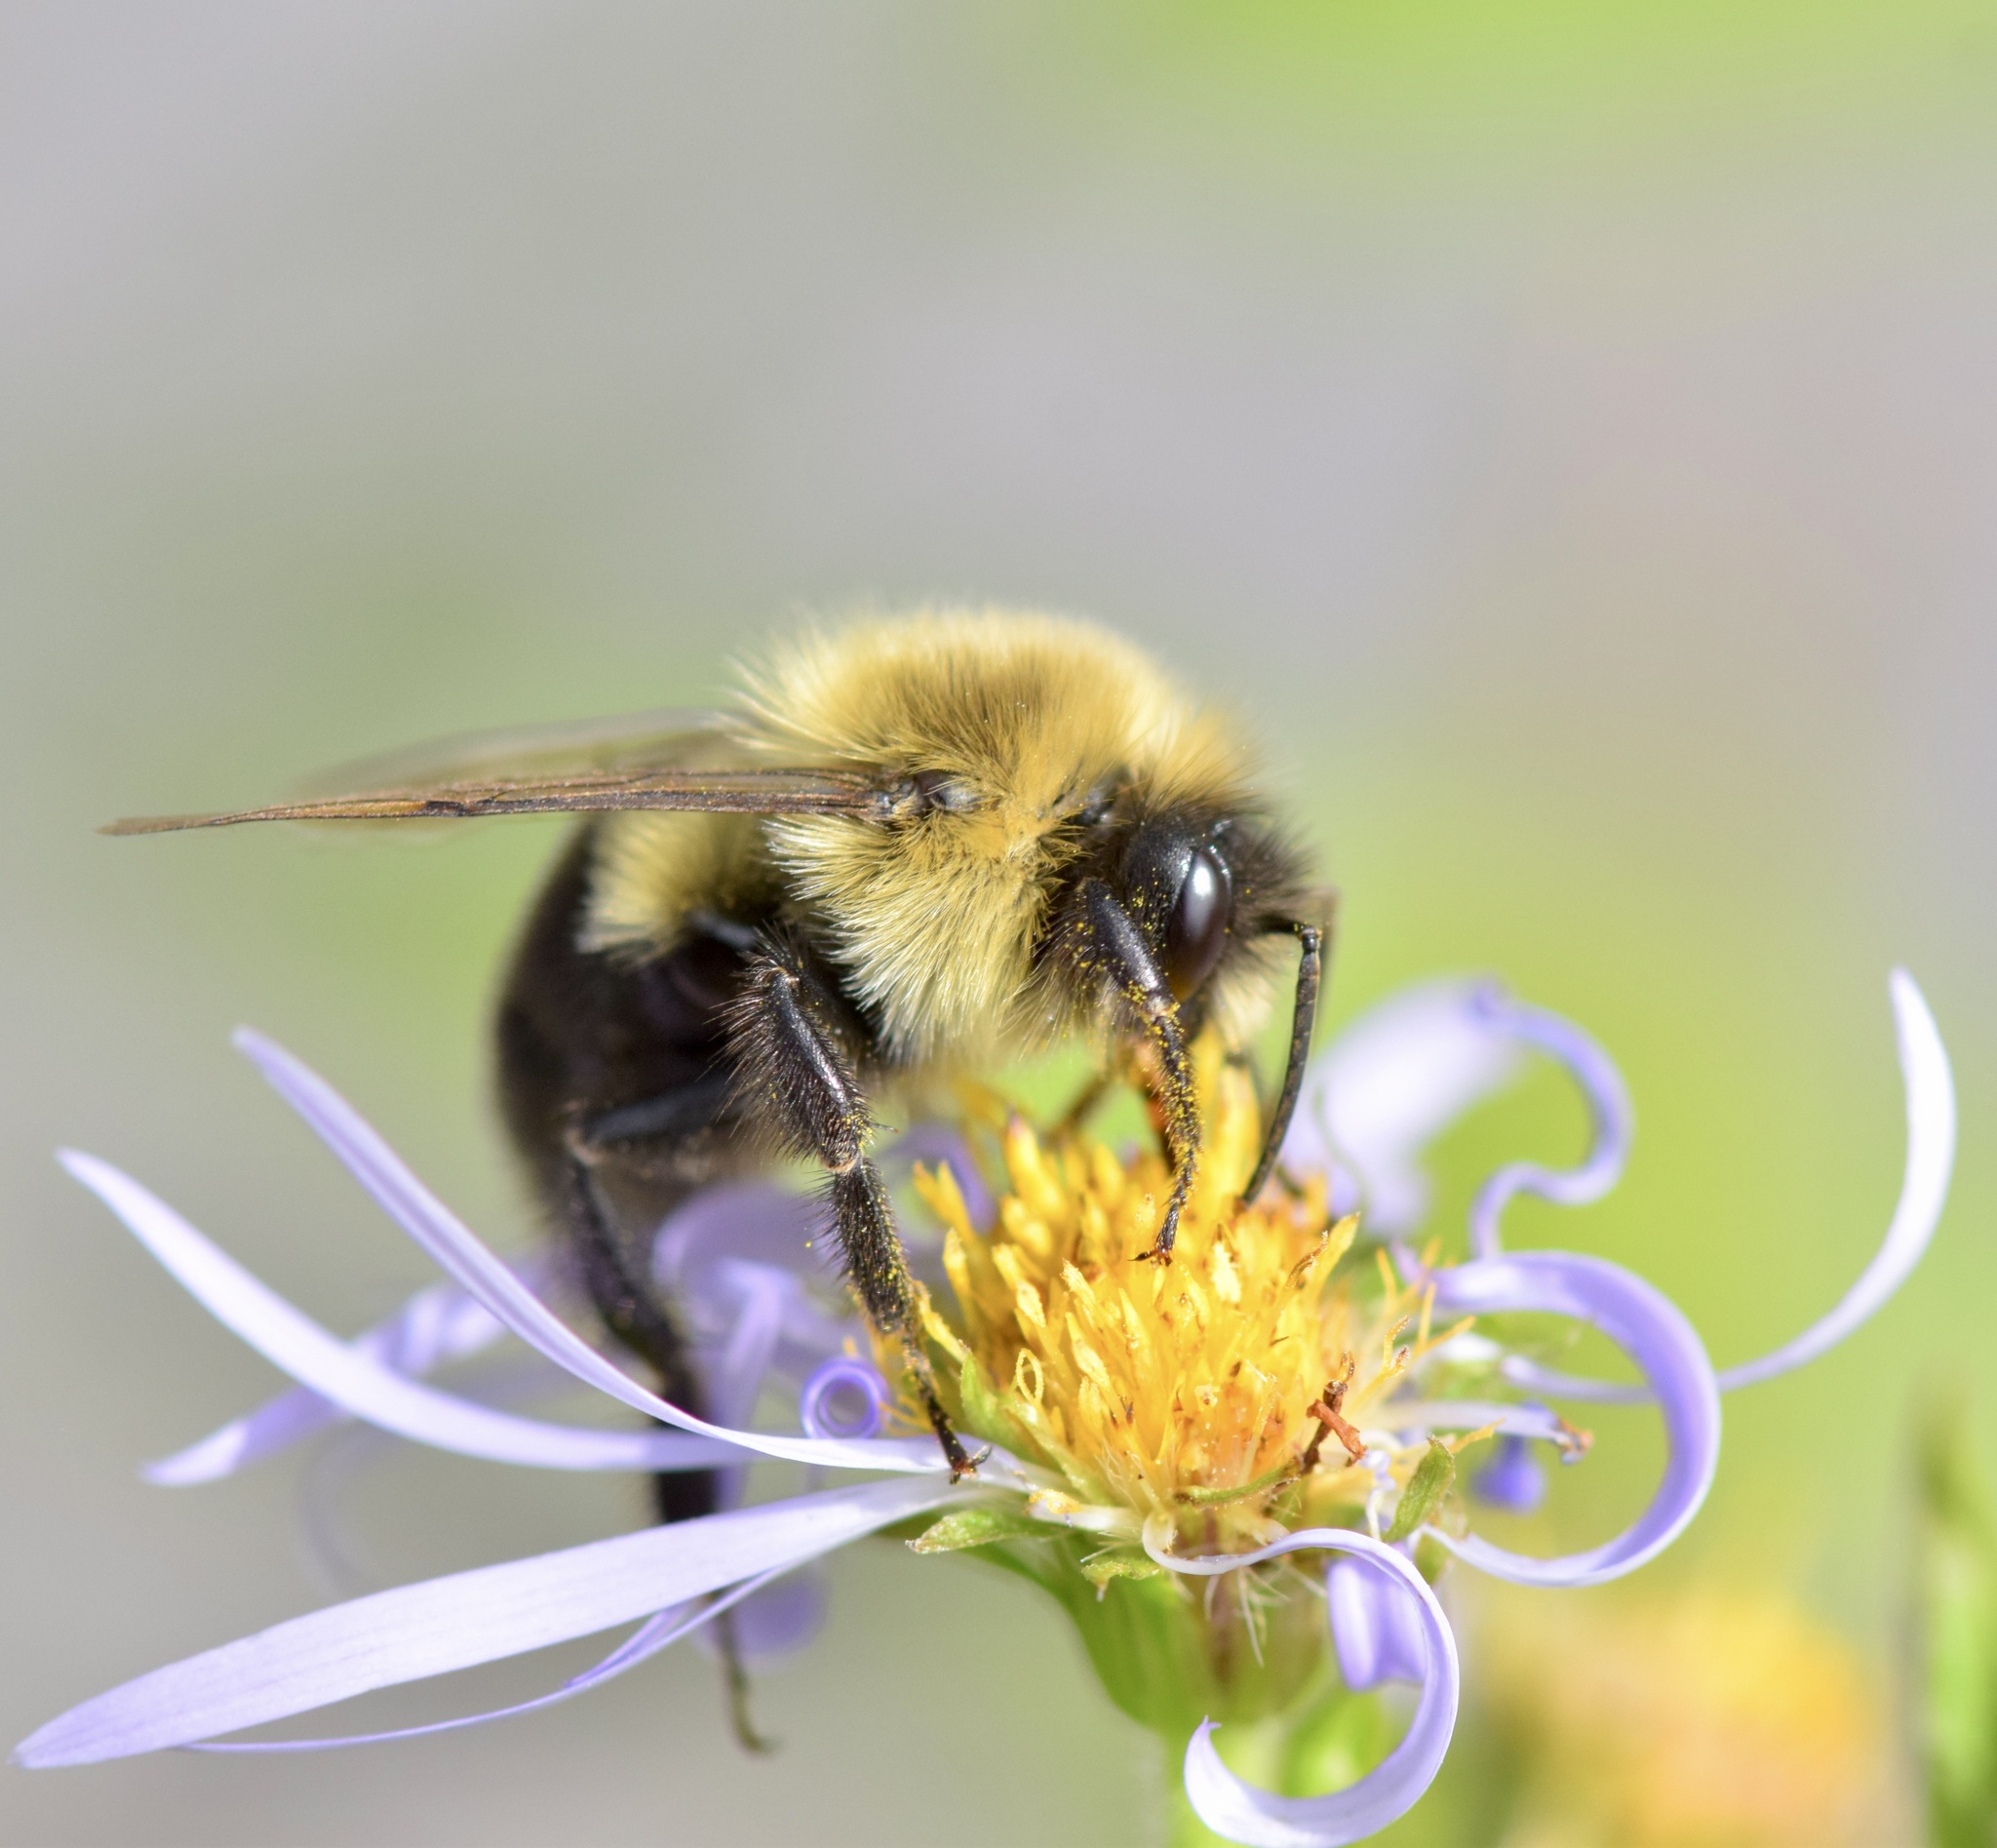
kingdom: Animalia
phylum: Arthropoda
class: Insecta
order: Hymenoptera
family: Apidae
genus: Bombus
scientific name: Bombus impatiens
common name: Common eastern bumble bee
